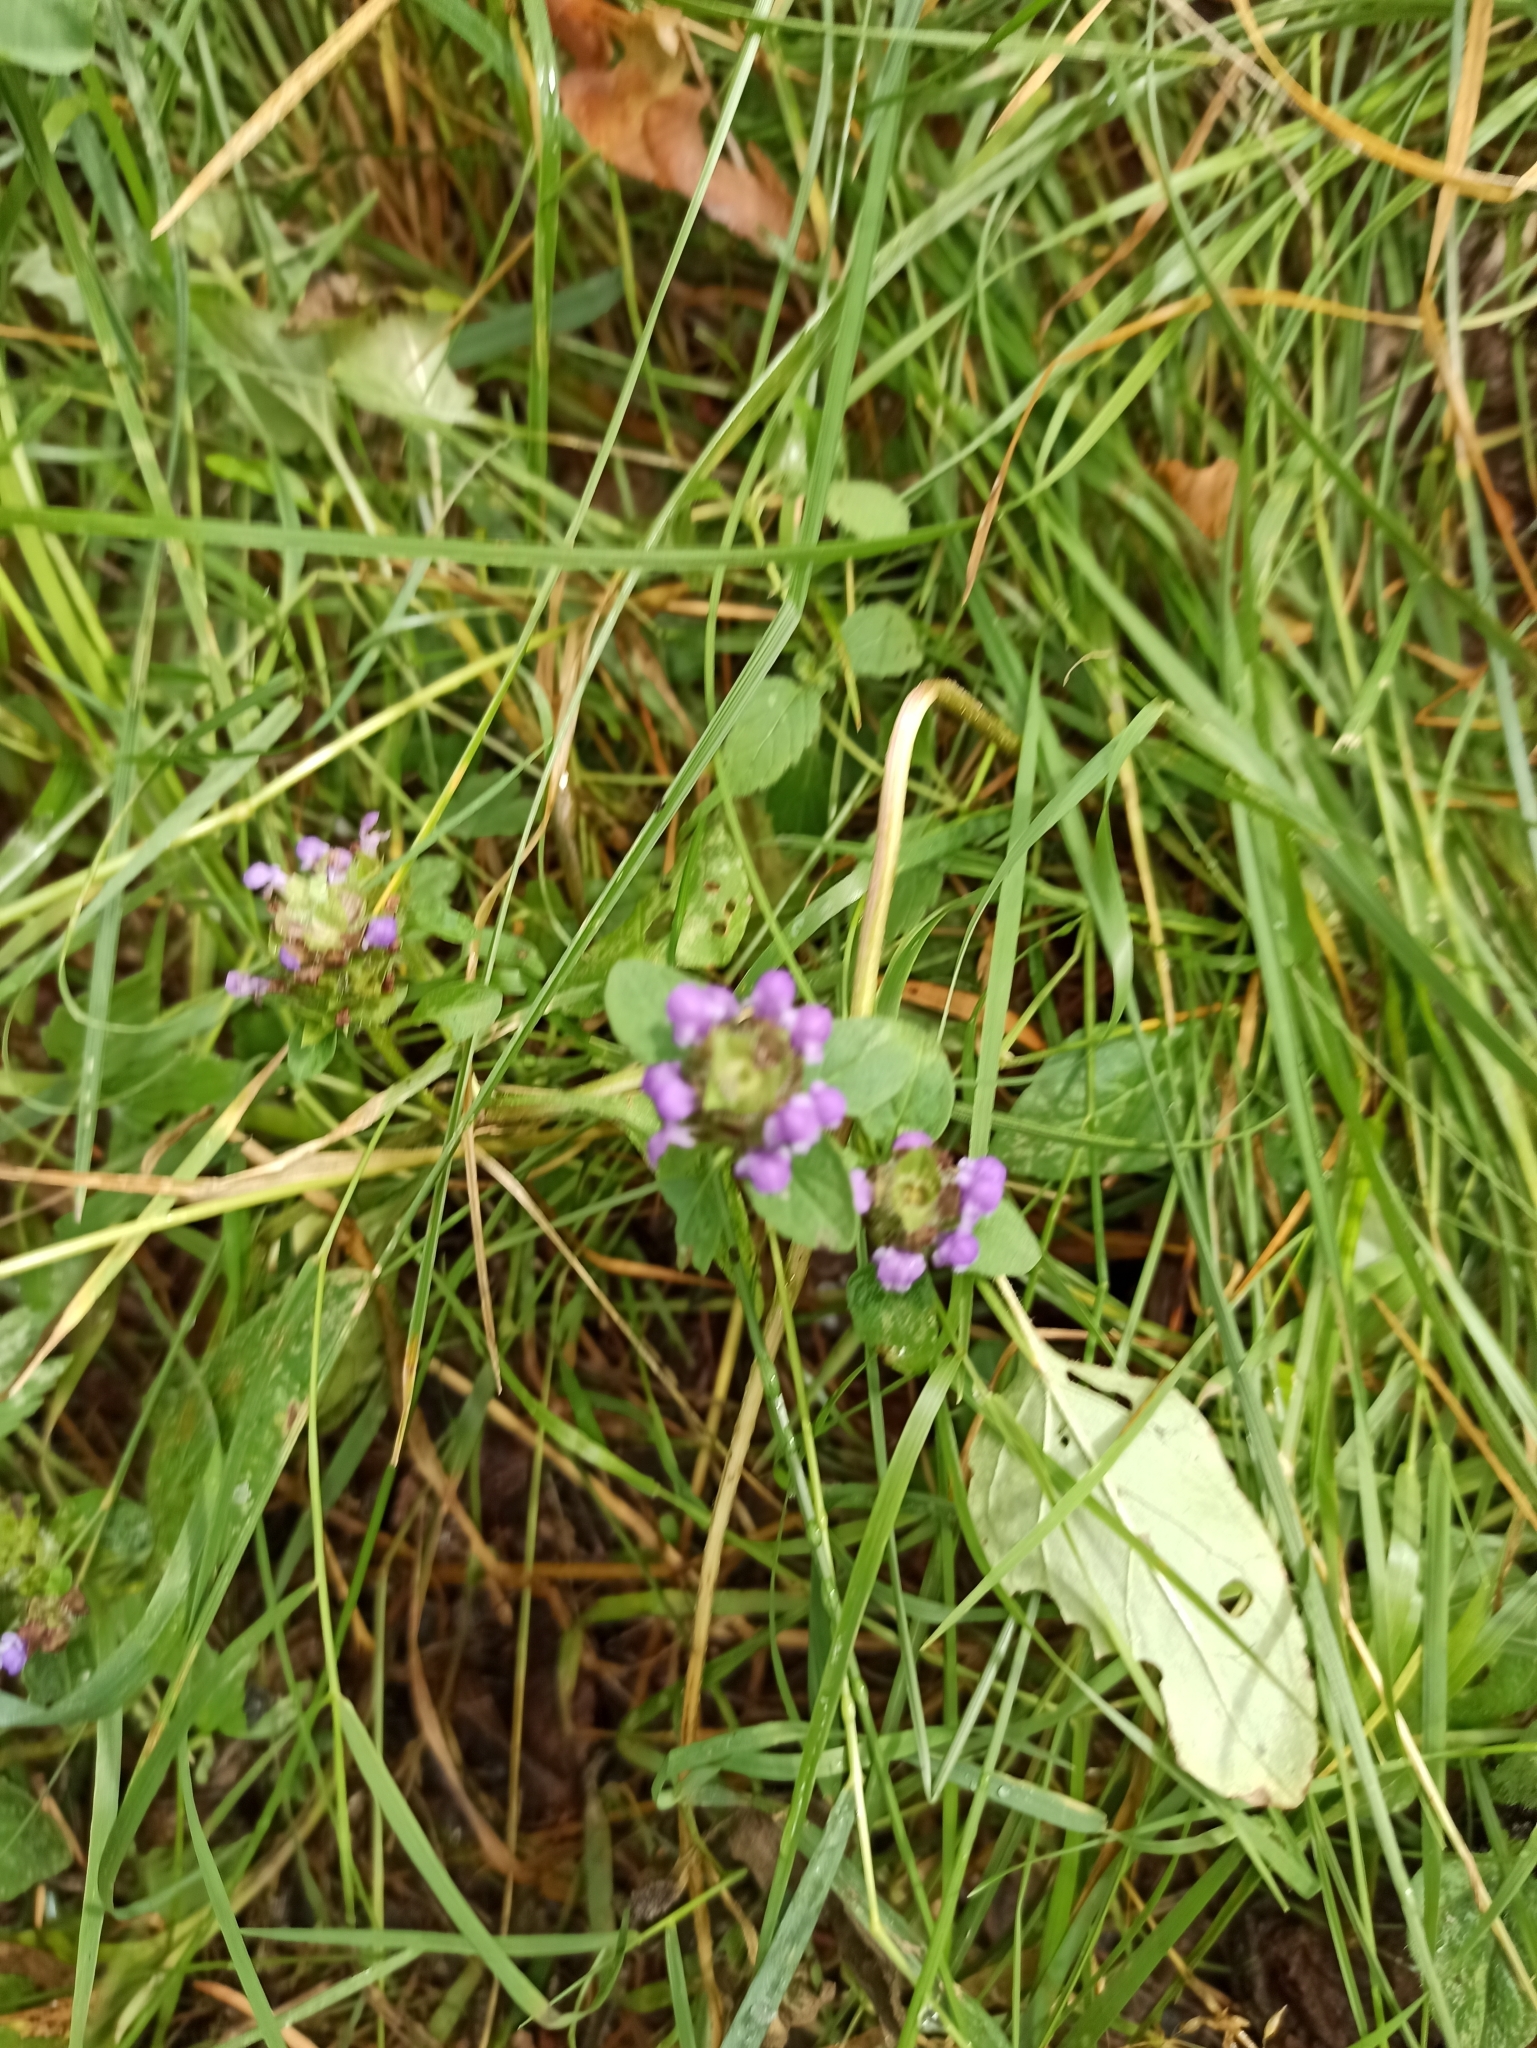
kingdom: Plantae
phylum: Tracheophyta
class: Magnoliopsida
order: Lamiales
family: Lamiaceae
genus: Prunella
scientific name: Prunella vulgaris
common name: Heal-all
